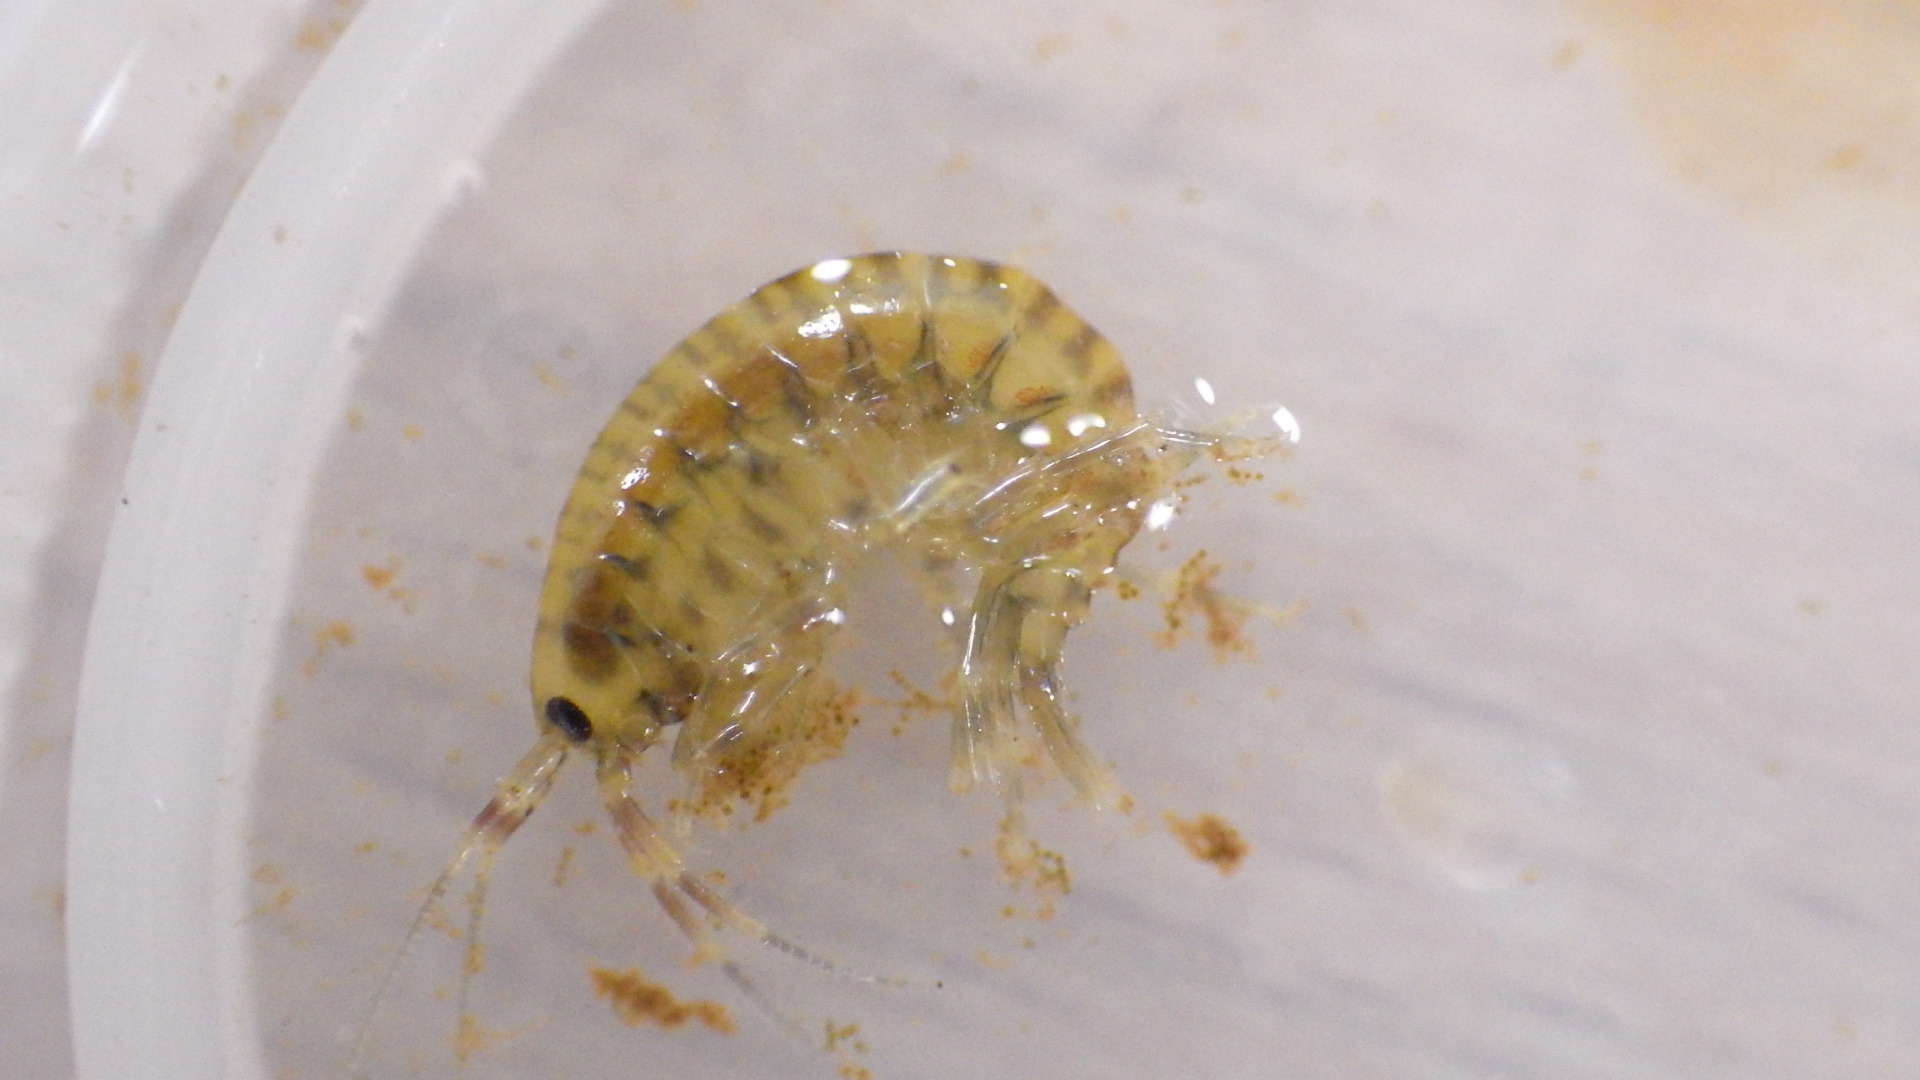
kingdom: Animalia
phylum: Arthropoda
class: Malacostraca
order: Amphipoda
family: Gammaridae
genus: Gammarus
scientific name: Gammarus fasciatus
